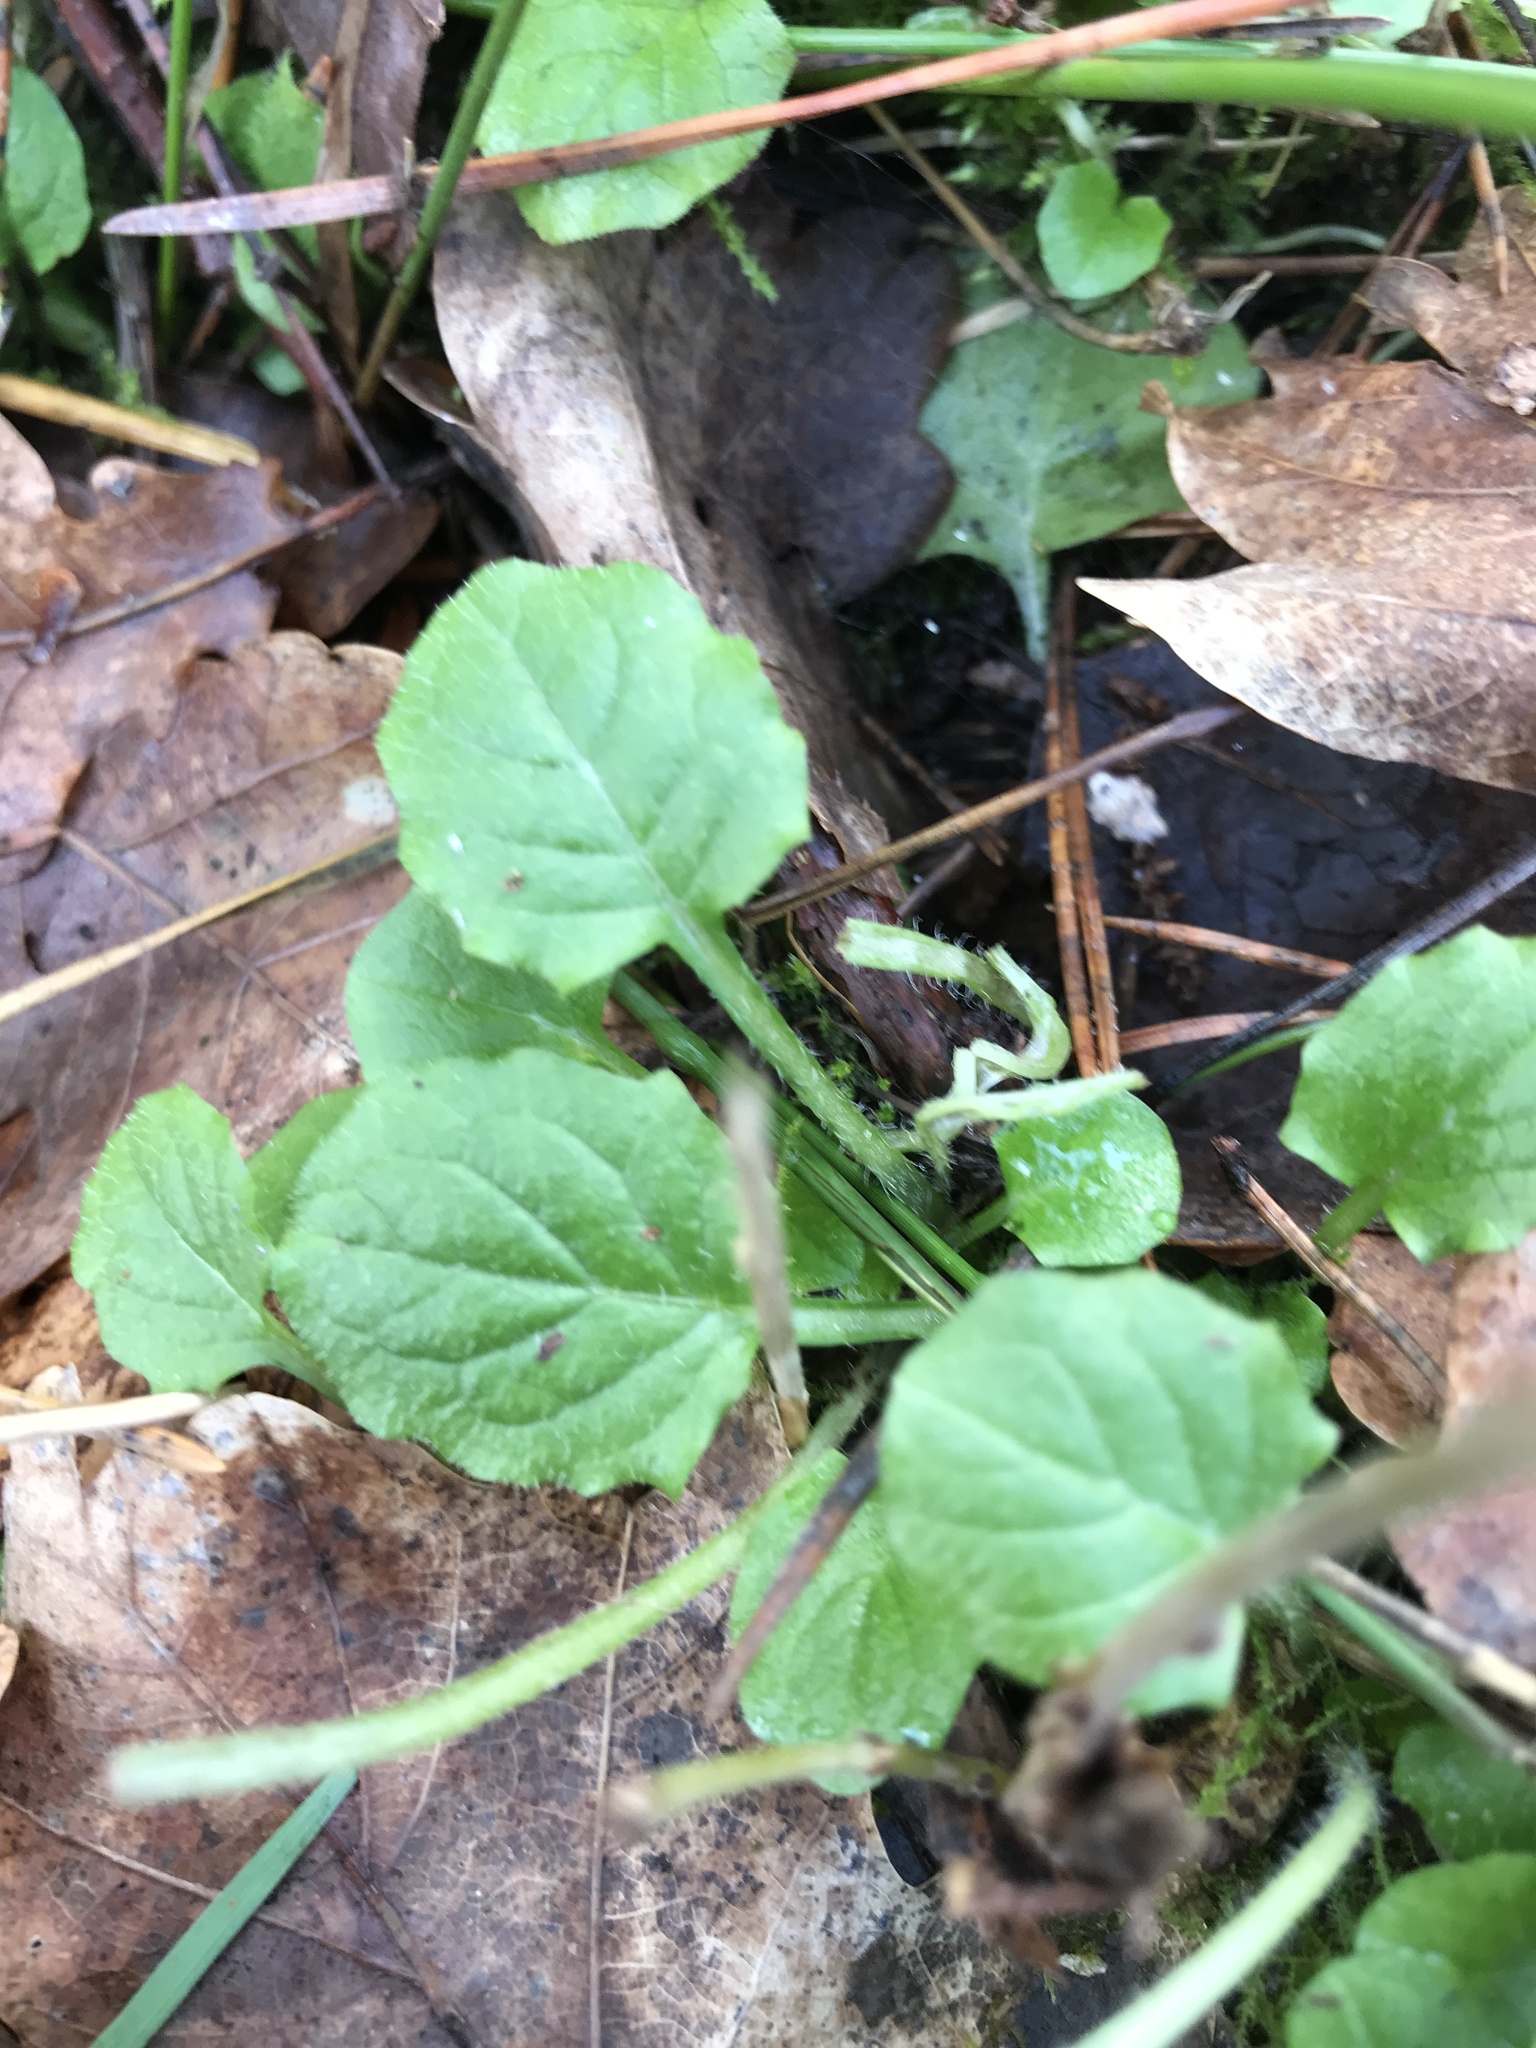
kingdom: Plantae
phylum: Tracheophyta
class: Magnoliopsida
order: Asterales
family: Asteraceae
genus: Lapsana
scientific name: Lapsana communis
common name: Nipplewort
